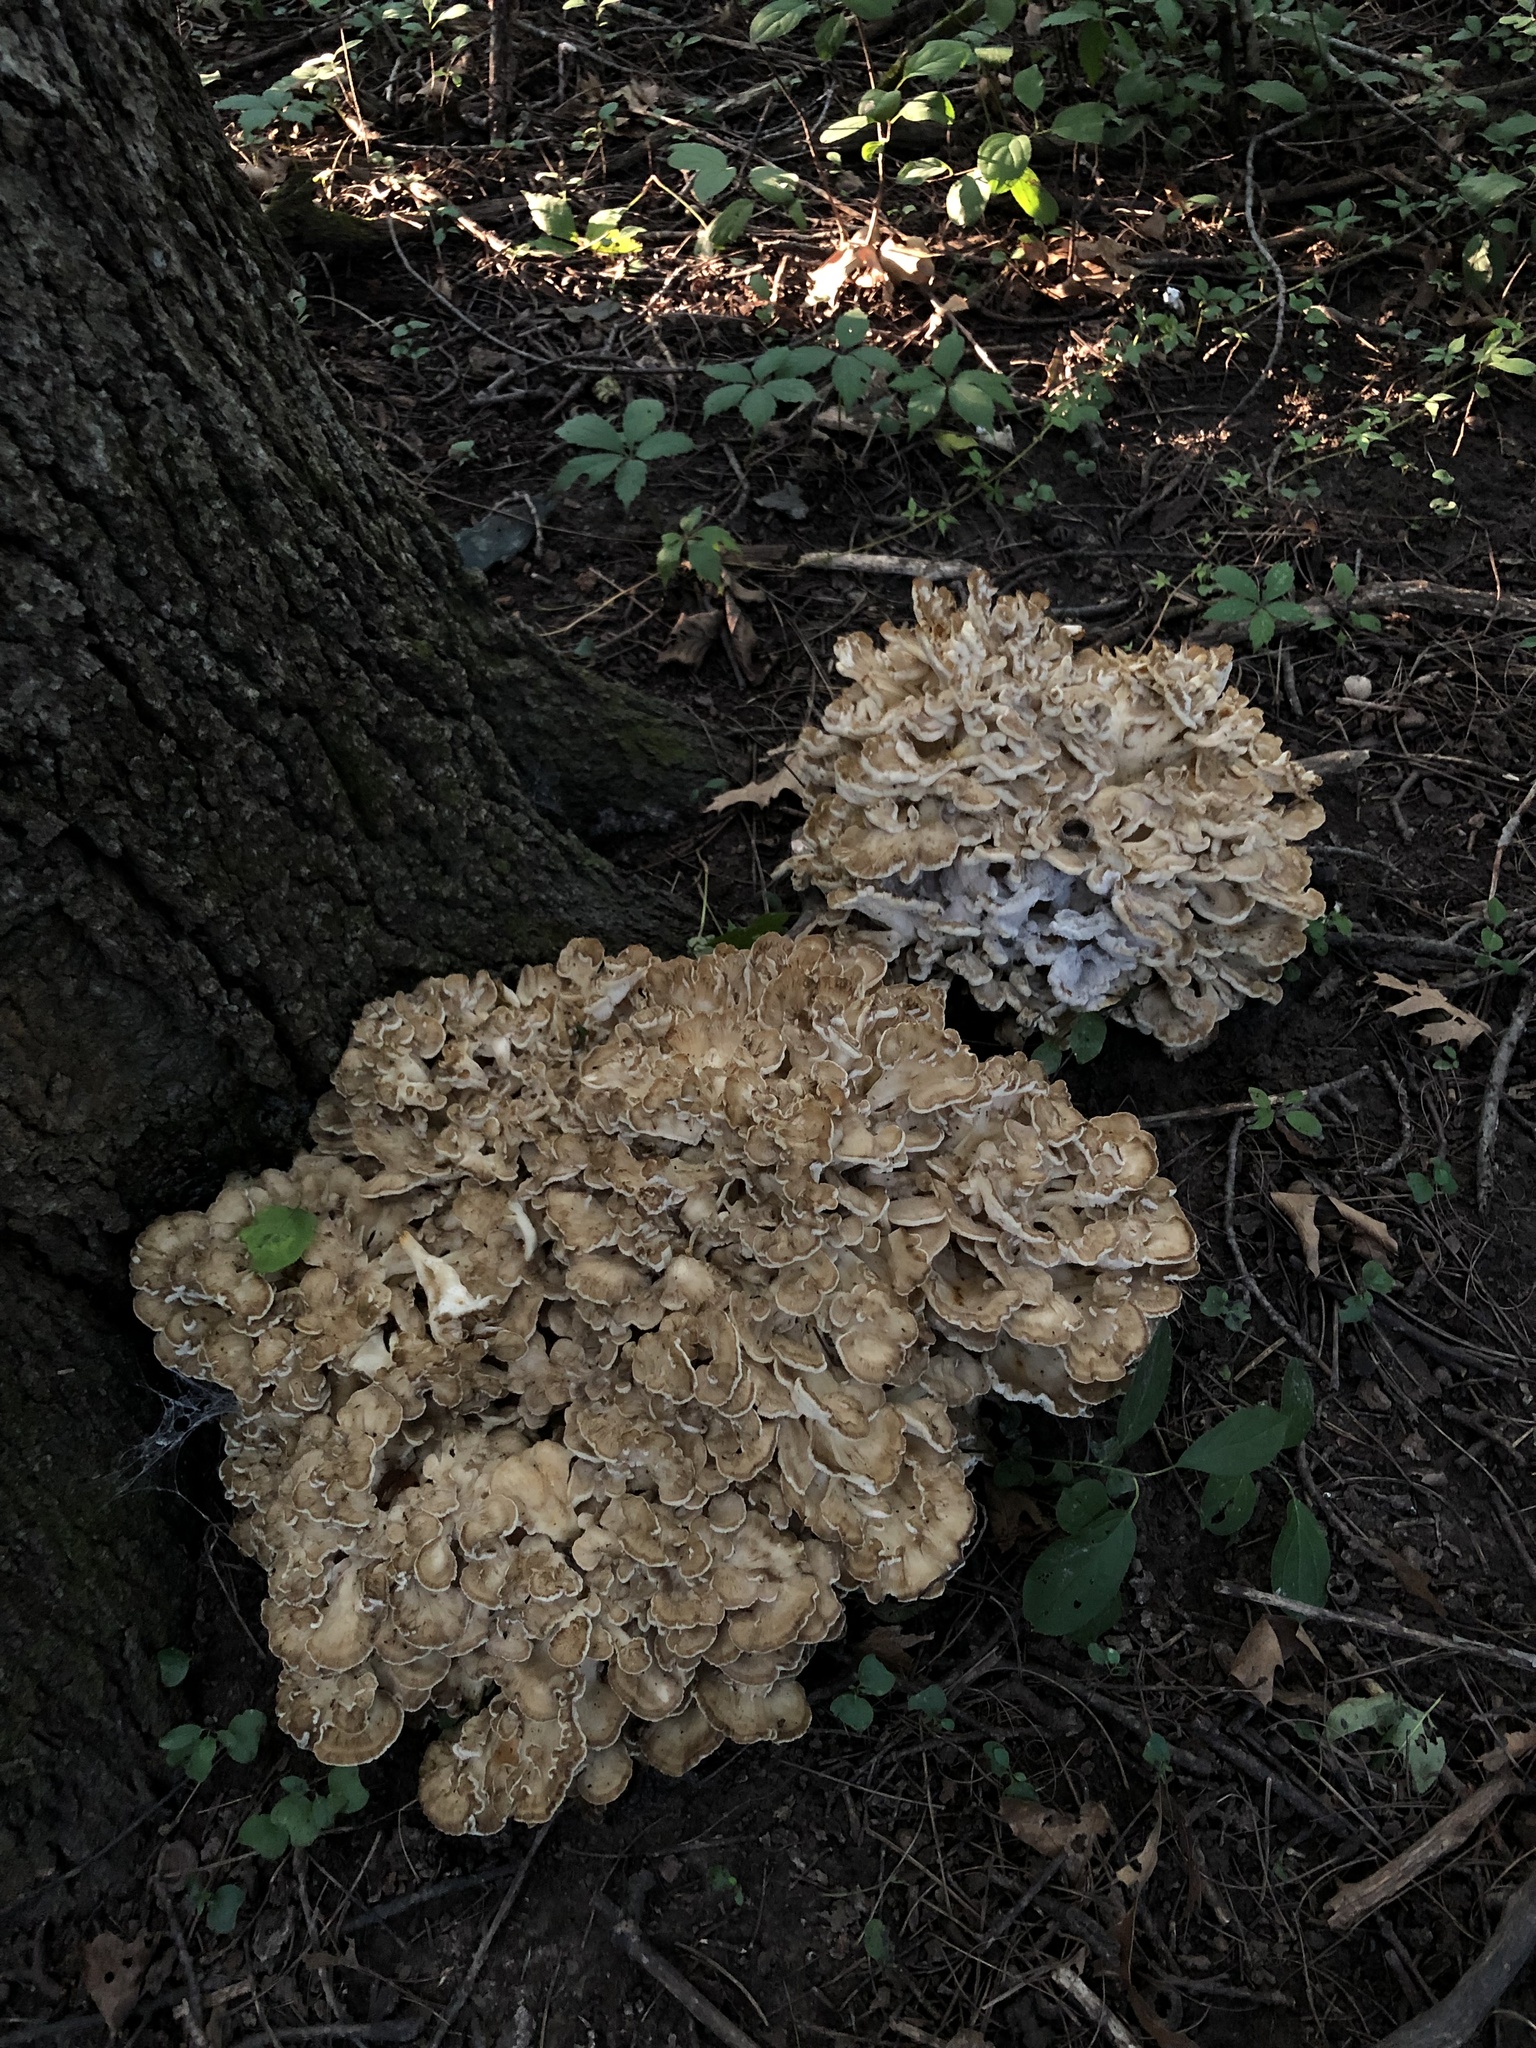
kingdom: Fungi
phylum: Basidiomycota
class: Agaricomycetes
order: Polyporales
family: Grifolaceae
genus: Grifola
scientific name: Grifola frondosa
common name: Hen of the woods
